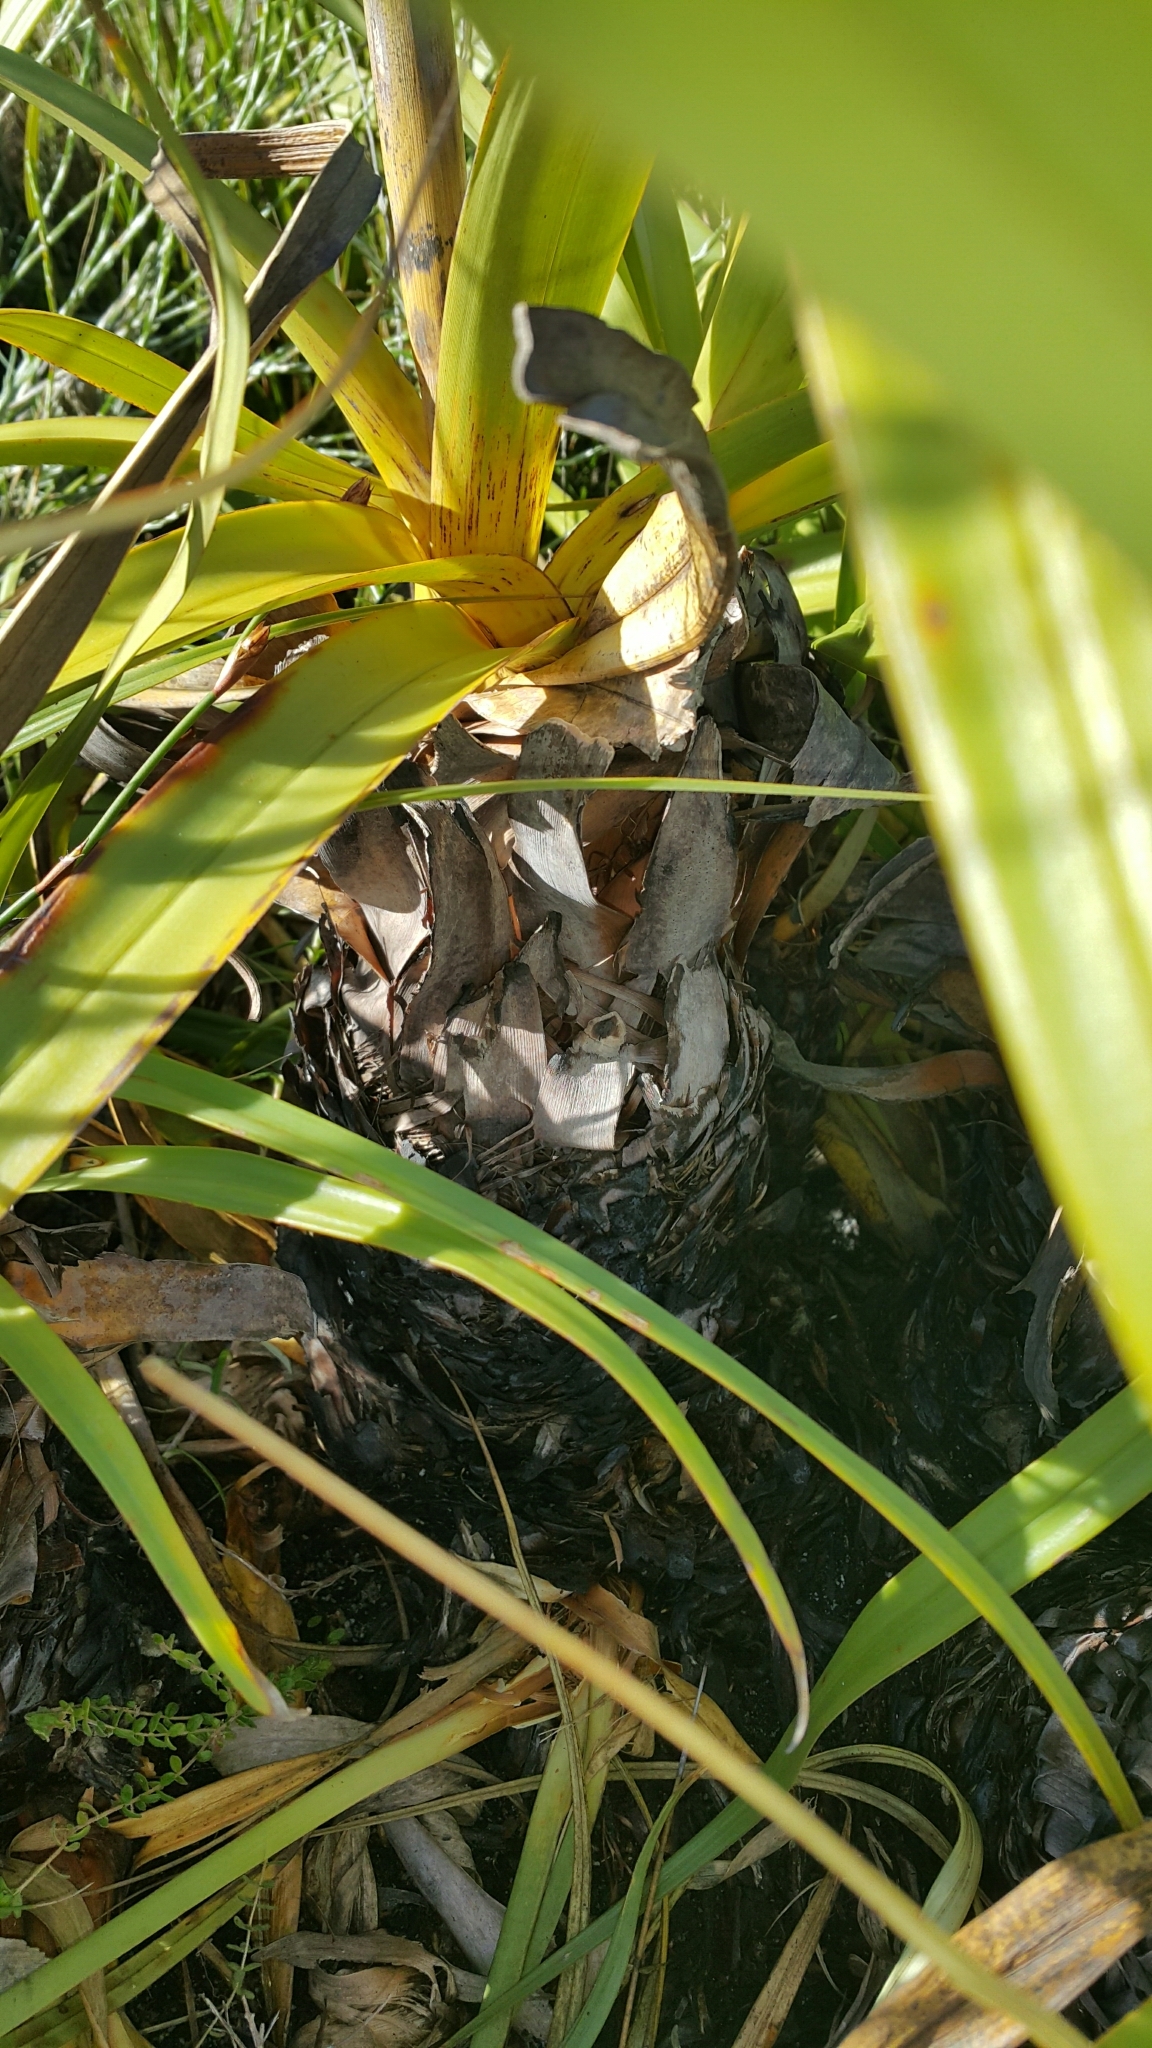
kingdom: Plantae
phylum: Tracheophyta
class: Liliopsida
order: Poales
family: Cyperaceae
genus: Tetraria
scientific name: Tetraria thermalis
